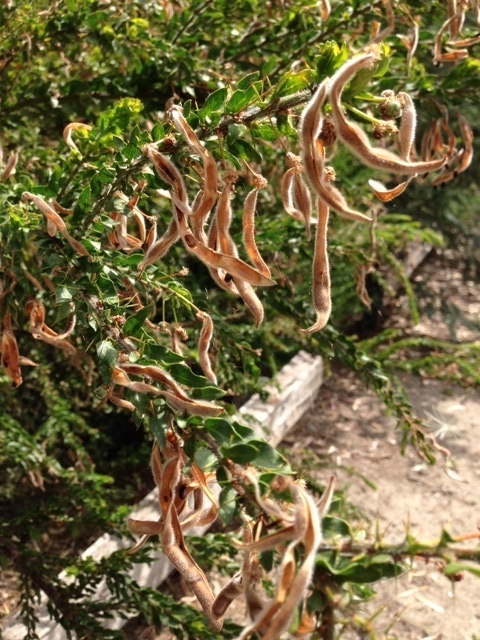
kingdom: Plantae
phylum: Tracheophyta
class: Magnoliopsida
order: Fabales
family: Fabaceae
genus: Acacia
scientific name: Acacia paradoxa
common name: Paradox acacia
